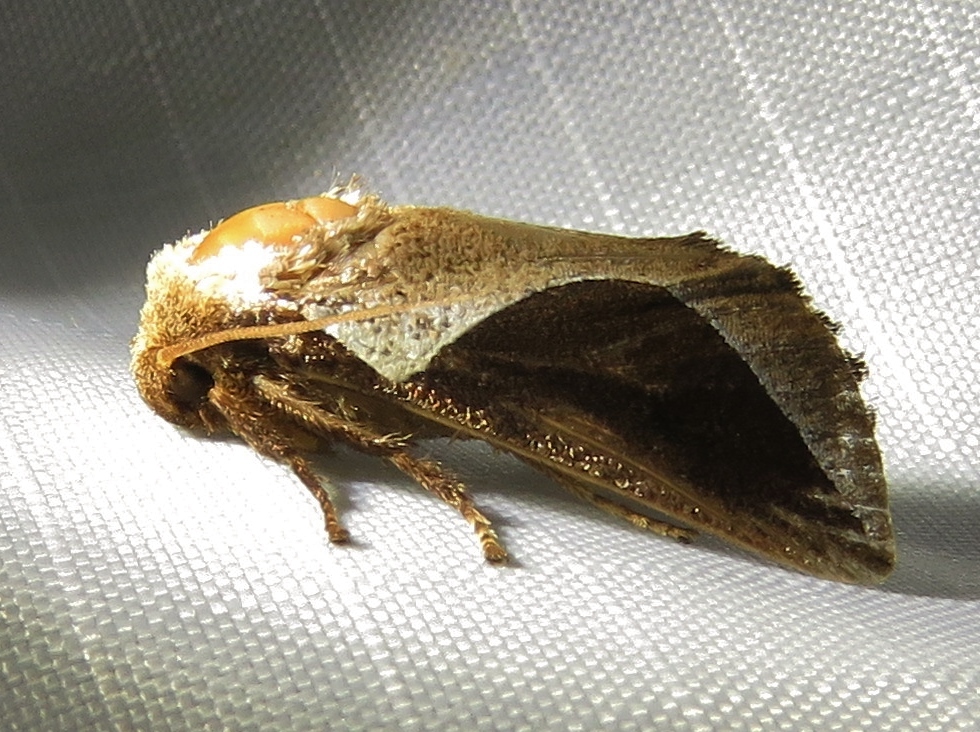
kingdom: Animalia
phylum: Arthropoda
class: Insecta
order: Lepidoptera
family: Limacodidae
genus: Prolimacodes
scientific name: Prolimacodes badia
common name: Skiff moth
